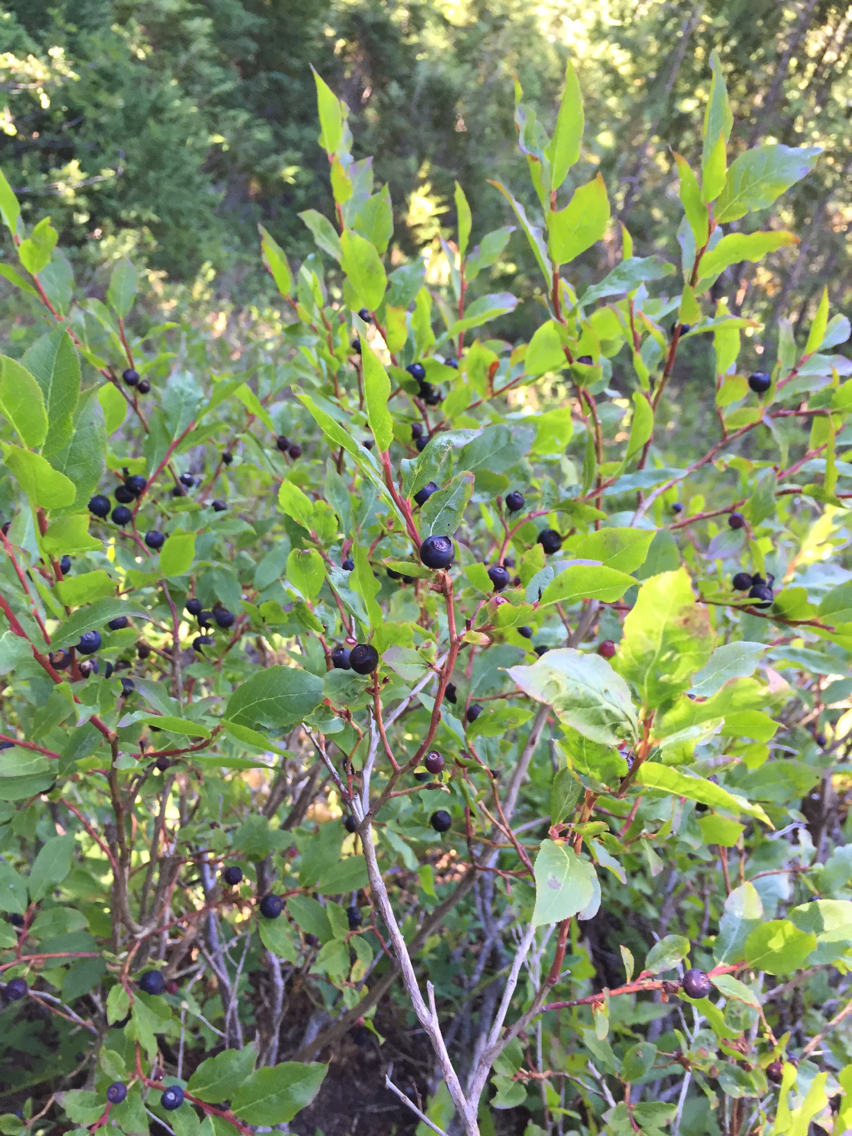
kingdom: Plantae
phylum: Tracheophyta
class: Magnoliopsida
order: Ericales
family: Ericaceae
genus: Vaccinium
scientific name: Vaccinium membranaceum
